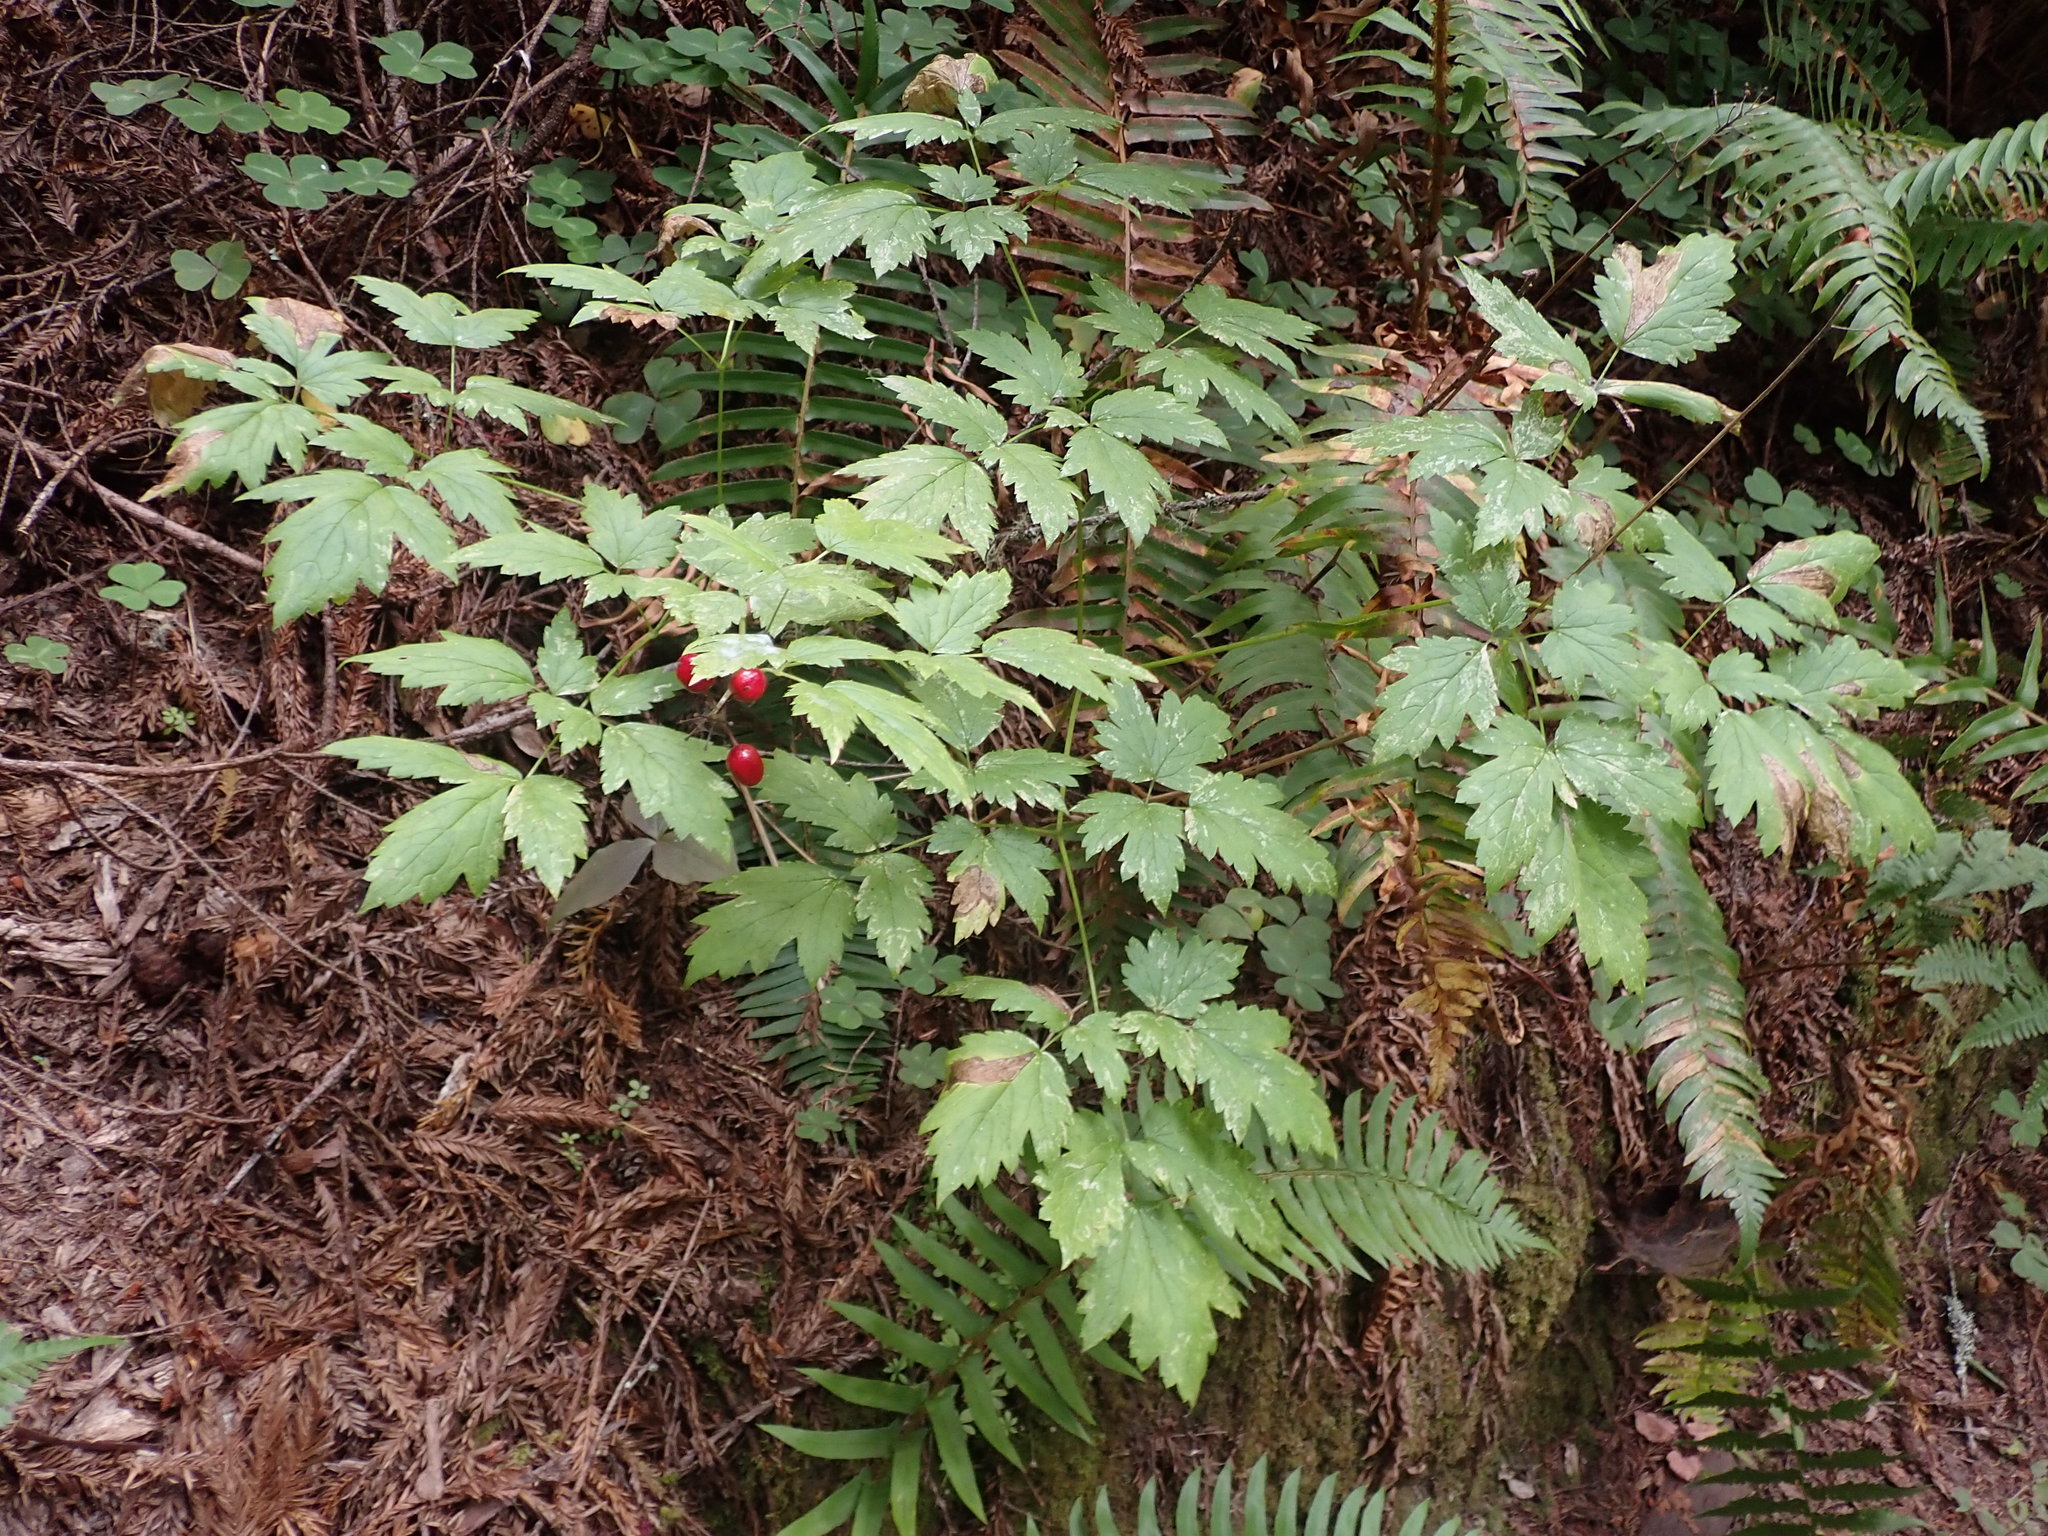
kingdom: Plantae
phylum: Tracheophyta
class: Magnoliopsida
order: Ranunculales
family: Ranunculaceae
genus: Actaea
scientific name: Actaea rubra
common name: Red baneberry
